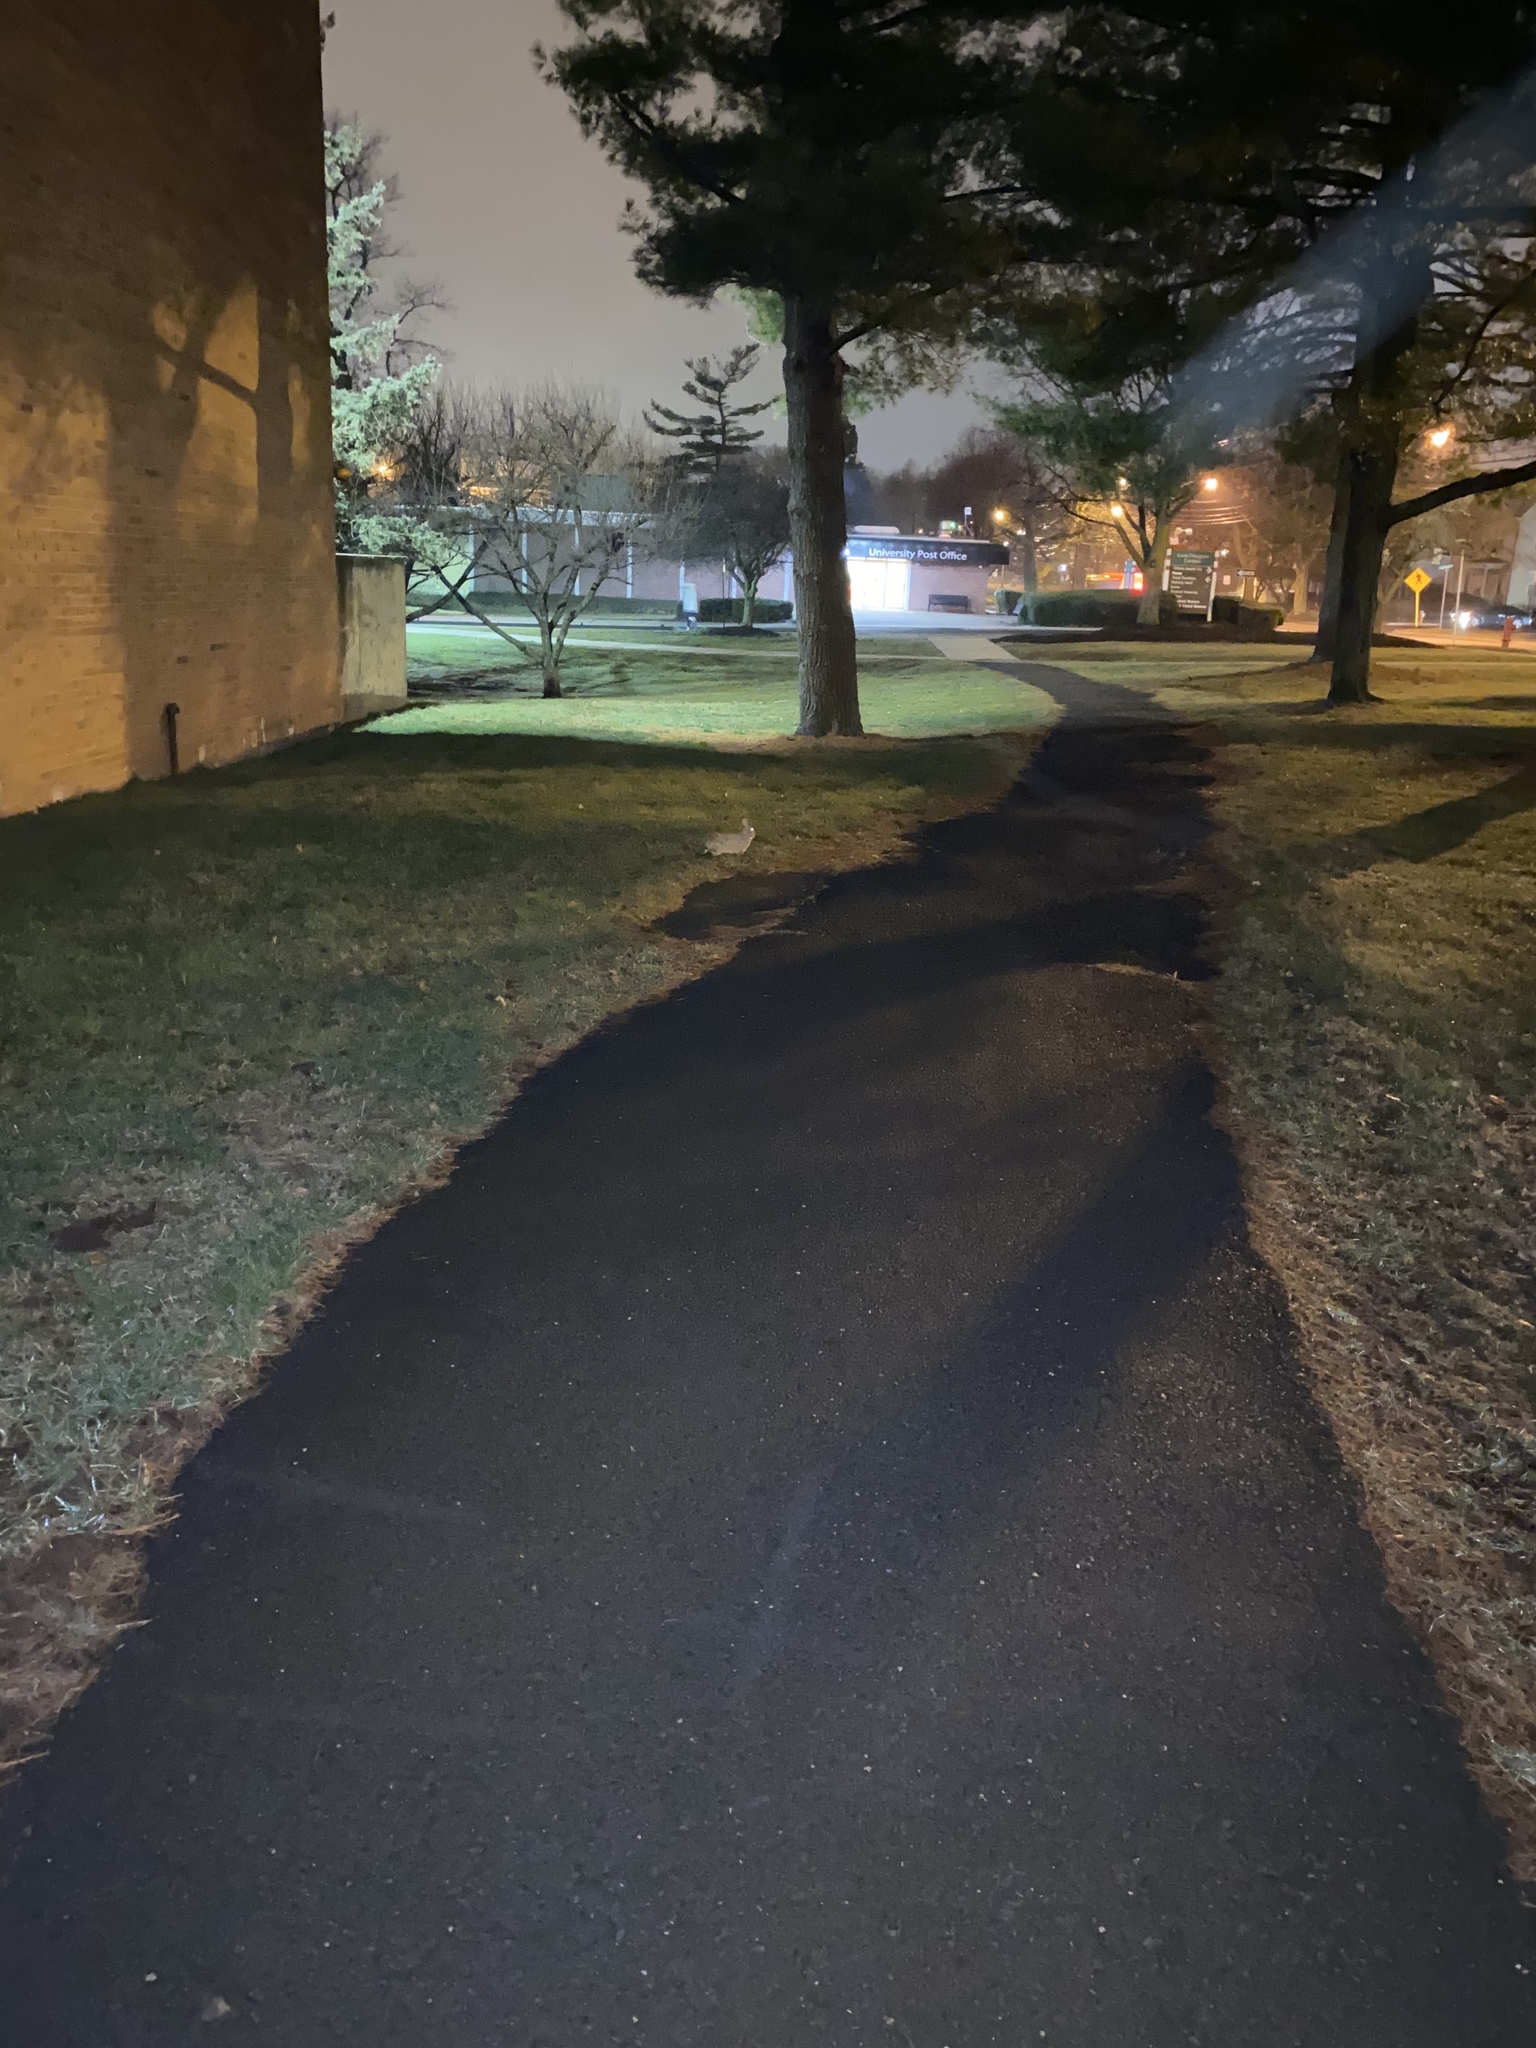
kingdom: Animalia
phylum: Chordata
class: Mammalia
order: Lagomorpha
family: Leporidae
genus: Sylvilagus
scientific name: Sylvilagus floridanus
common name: Eastern cottontail
